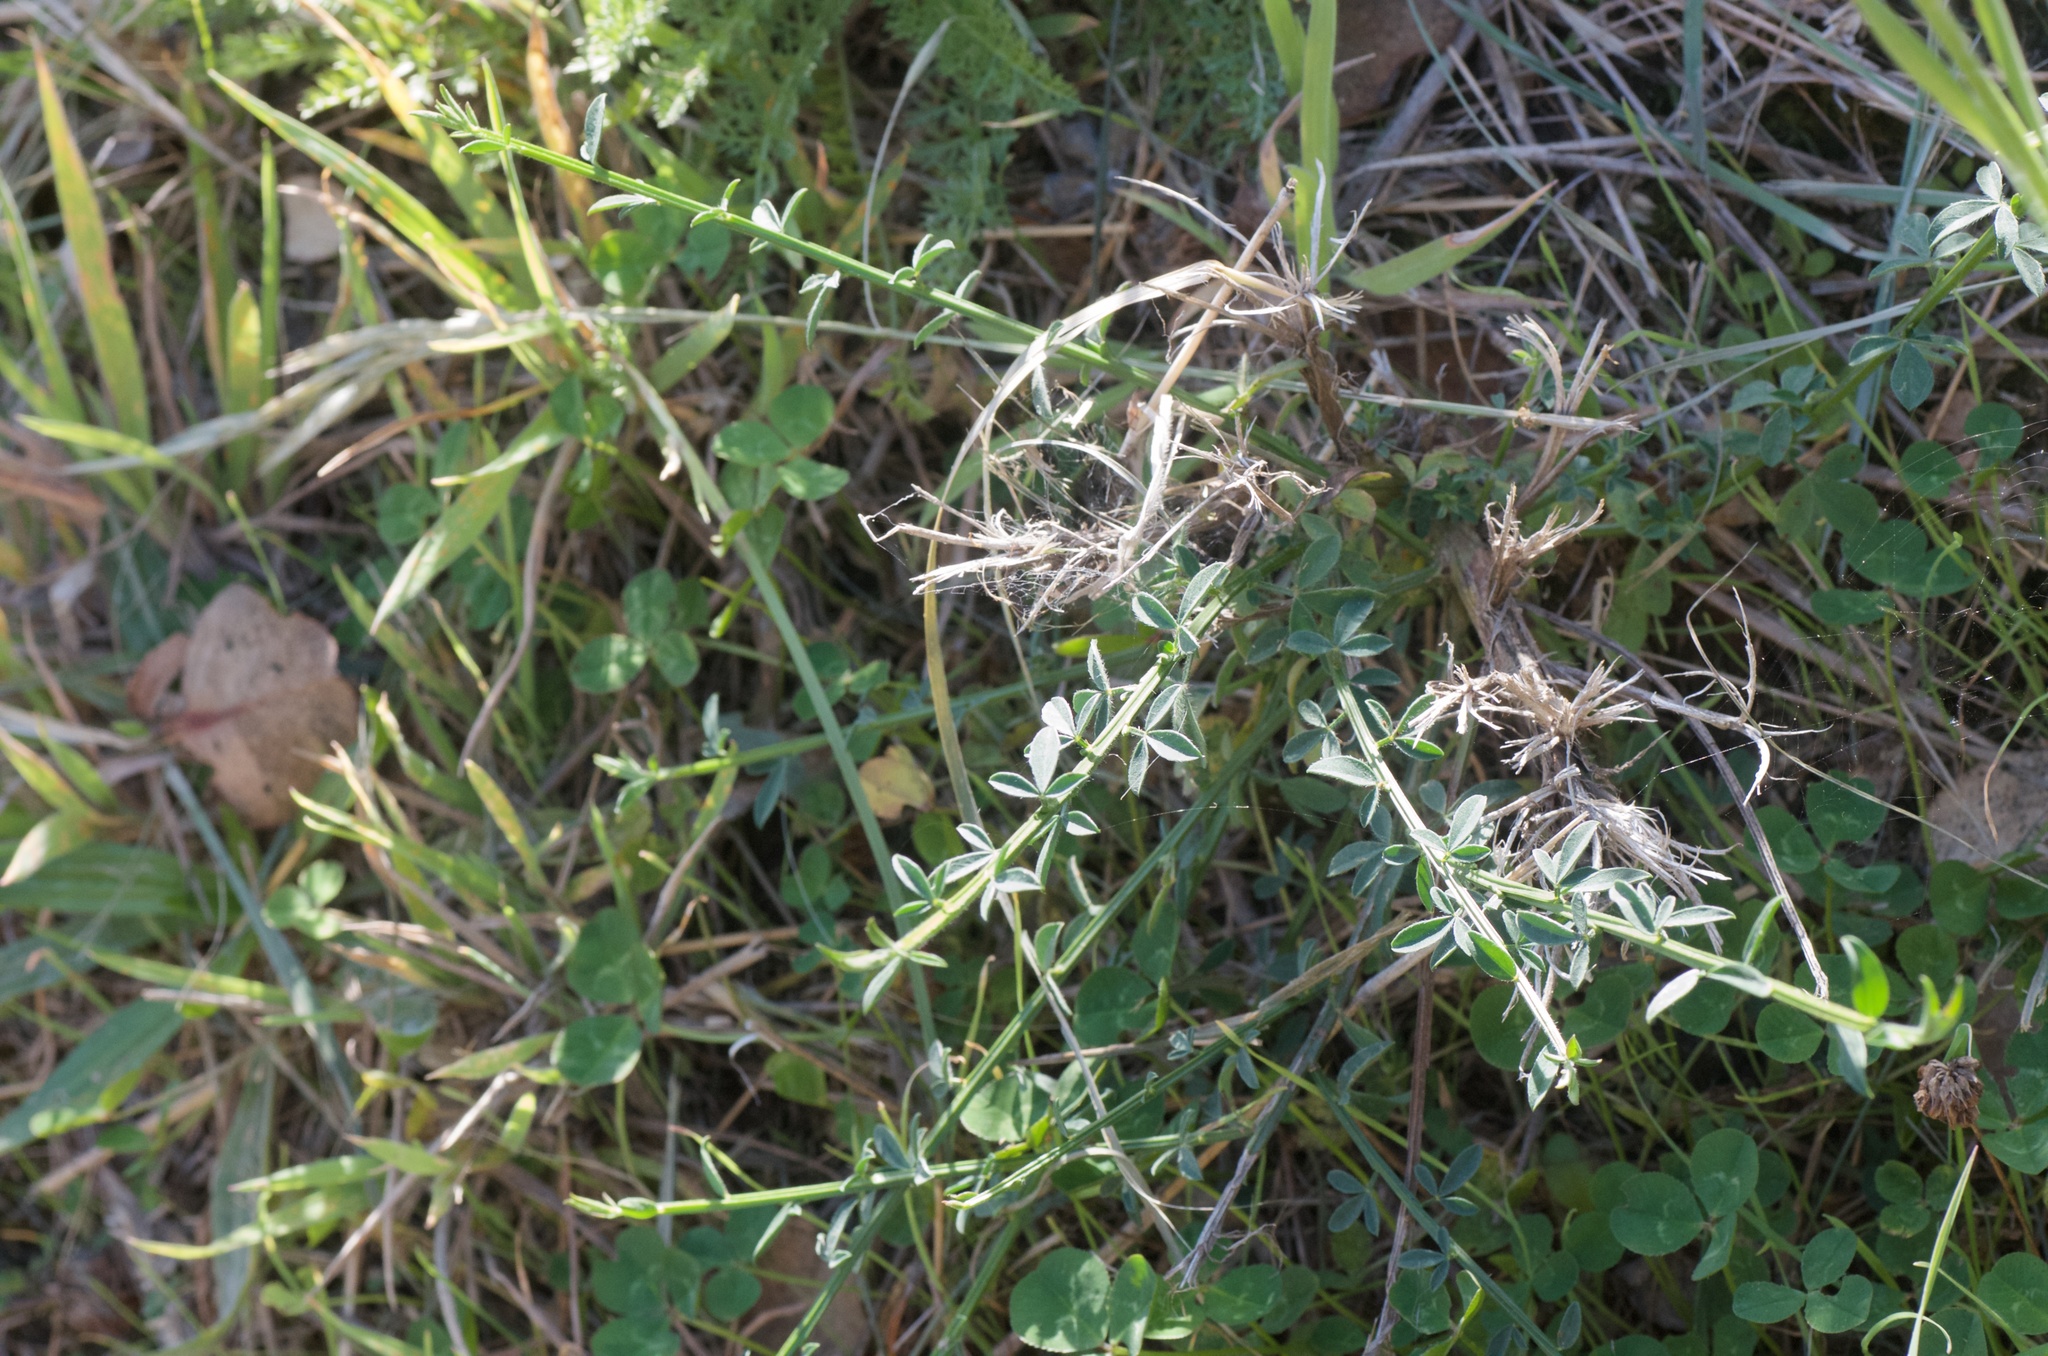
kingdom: Plantae
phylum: Tracheophyta
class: Magnoliopsida
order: Fabales
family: Fabaceae
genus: Cytisus
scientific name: Cytisus scoparius
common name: Scotch broom
